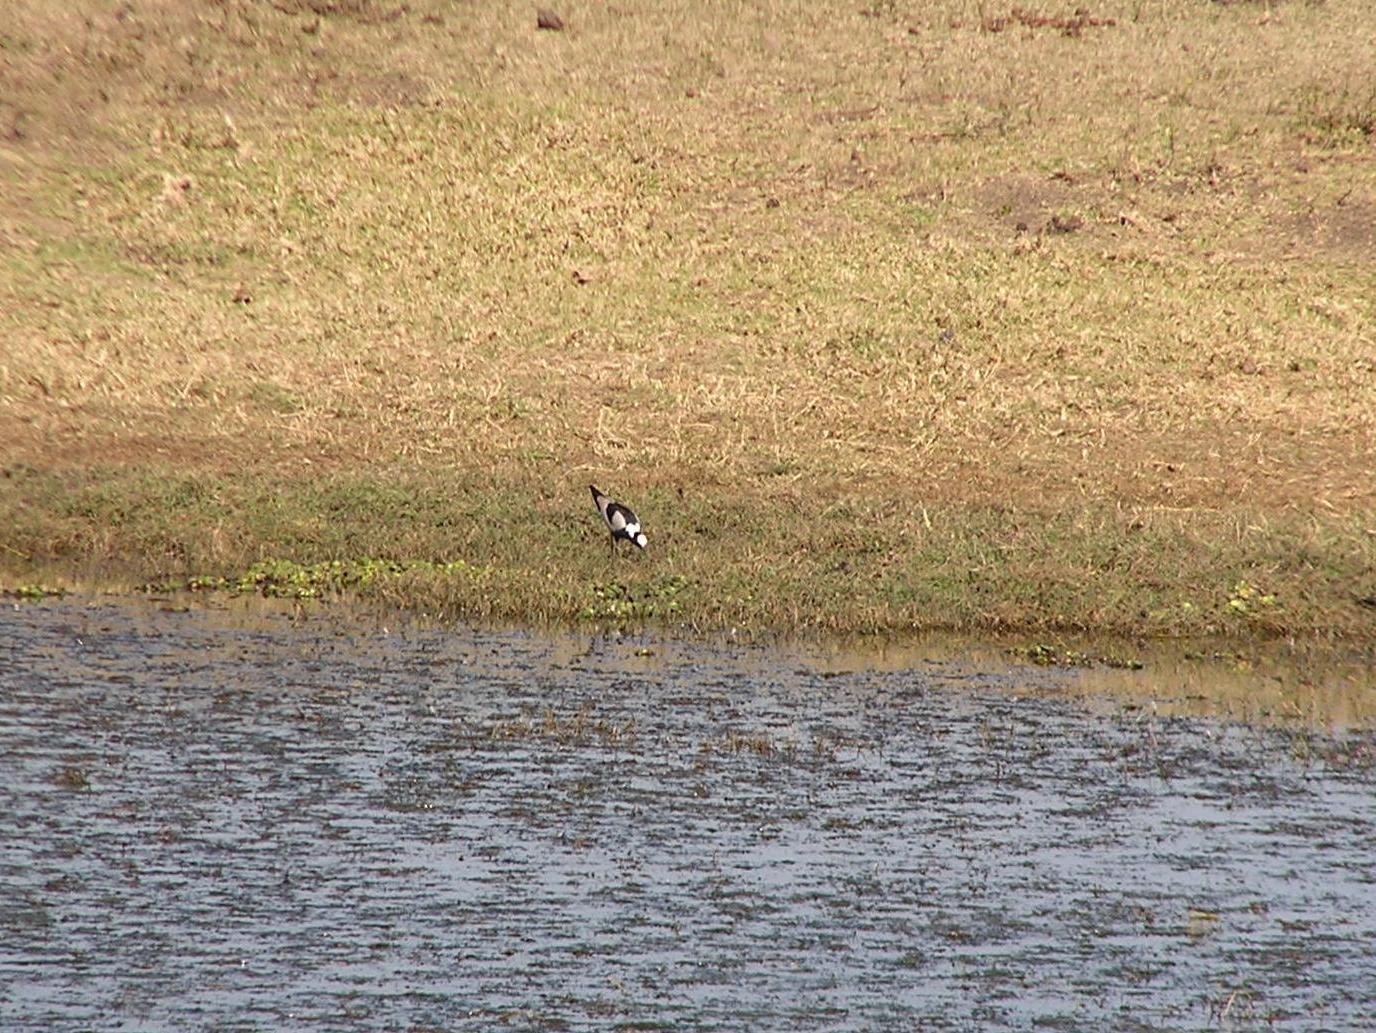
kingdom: Animalia
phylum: Chordata
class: Aves
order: Charadriiformes
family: Charadriidae
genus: Vanellus
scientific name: Vanellus armatus
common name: Blacksmith lapwing
